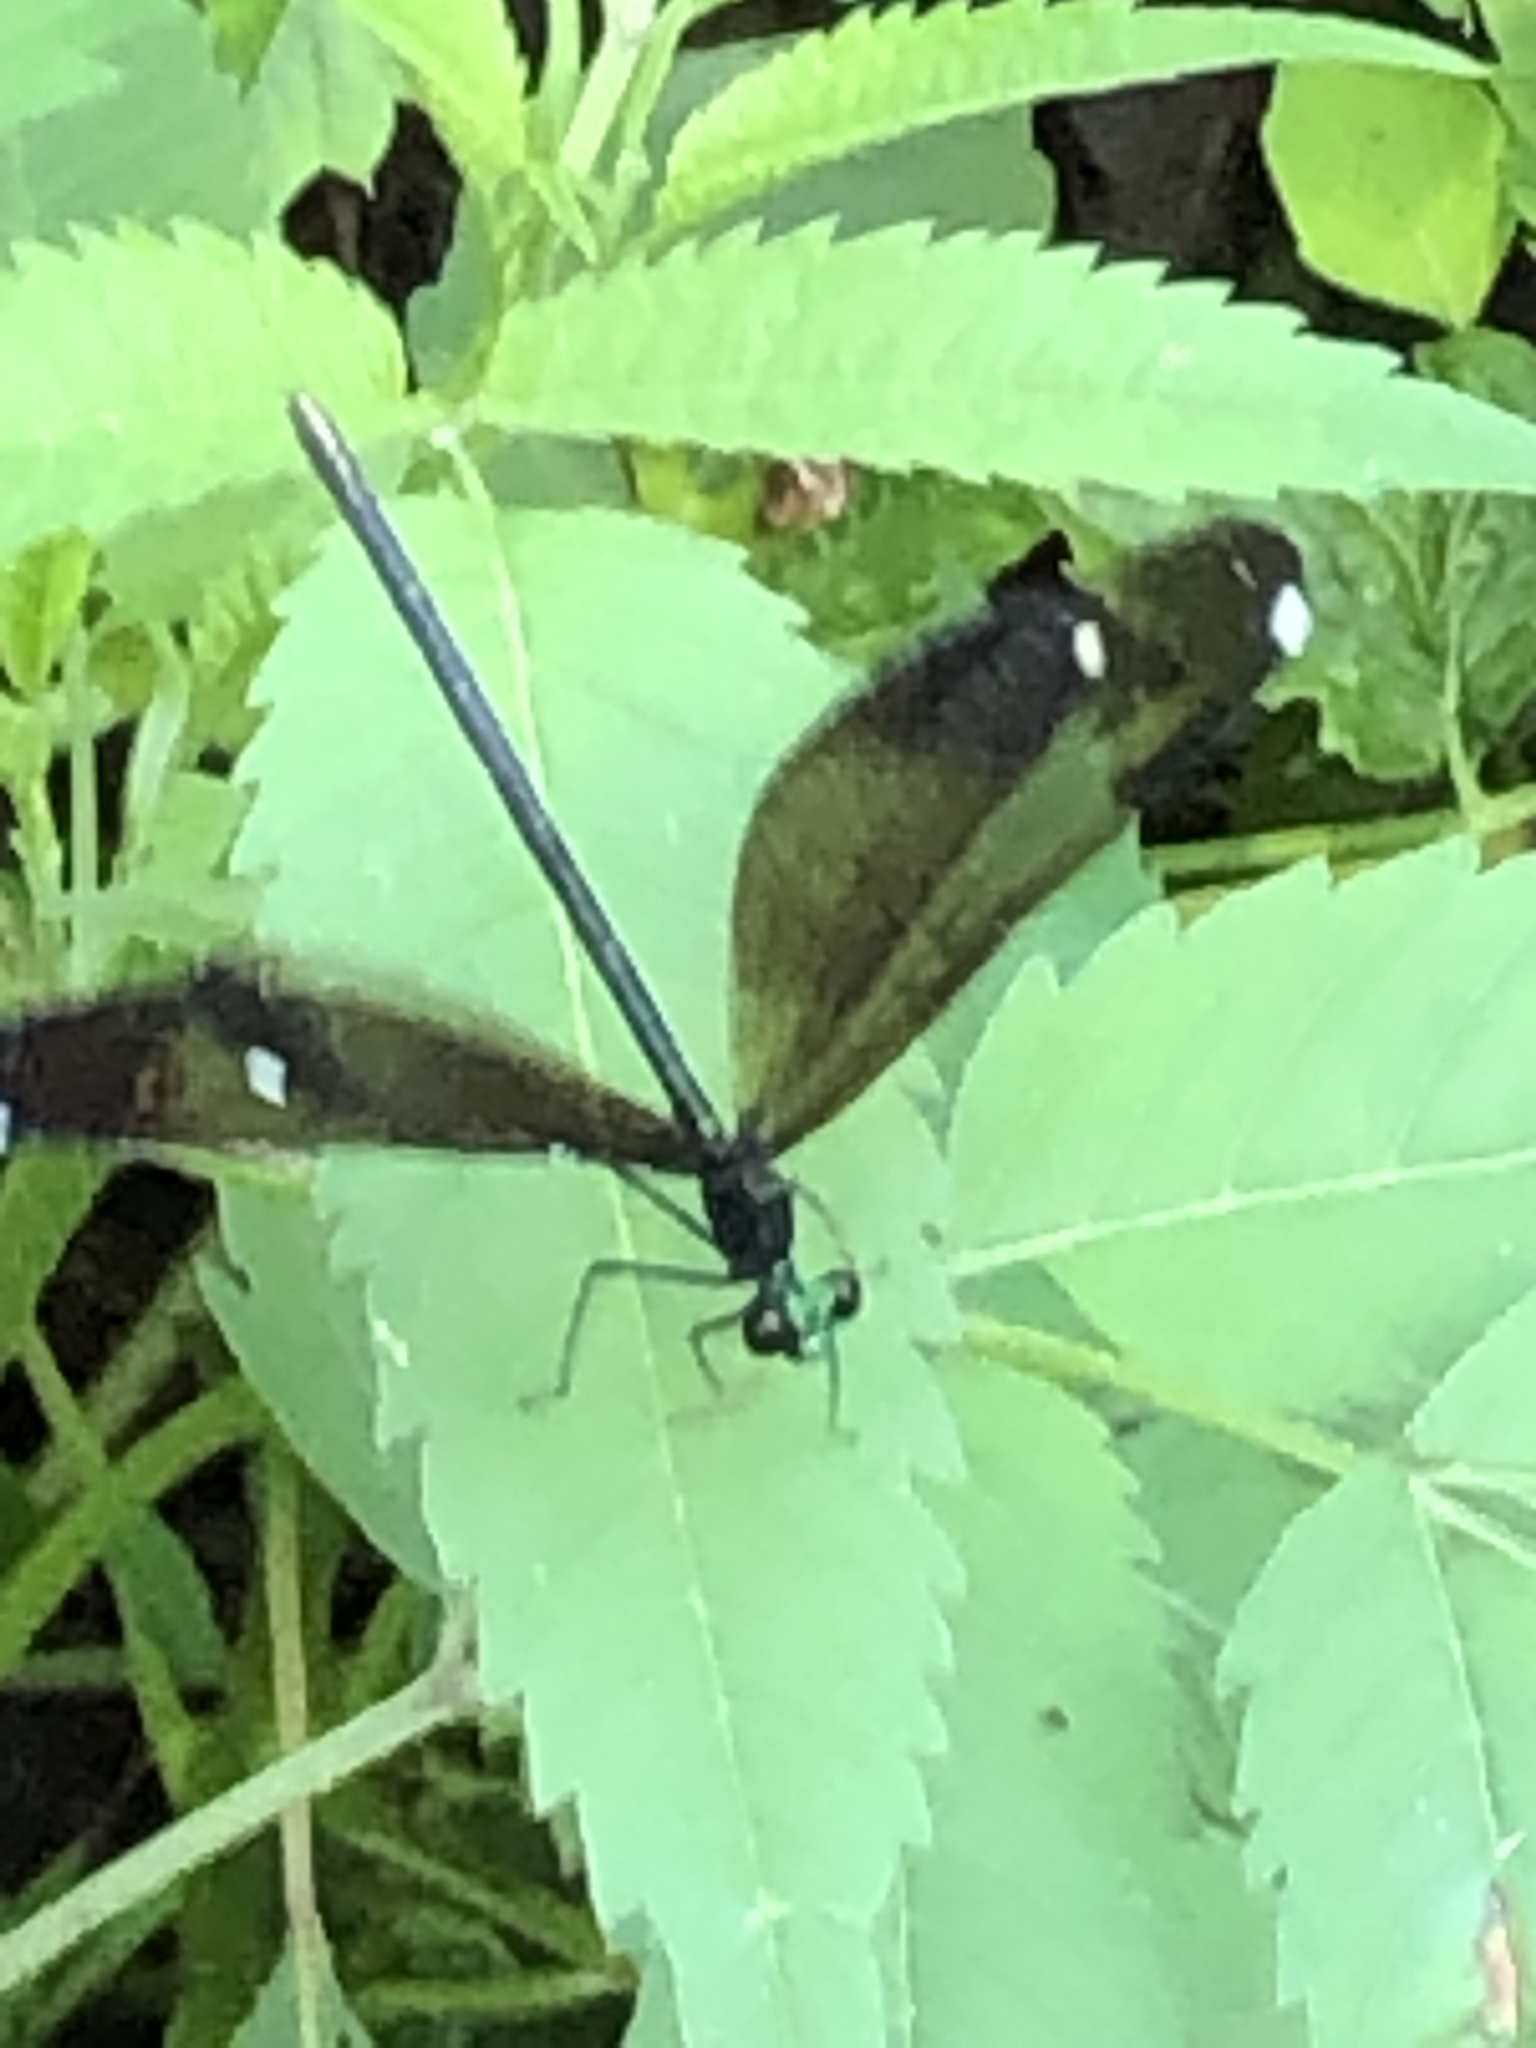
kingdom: Animalia
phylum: Arthropoda
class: Insecta
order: Odonata
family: Calopterygidae
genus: Calopteryx
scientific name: Calopteryx maculata
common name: Ebony jewelwing
